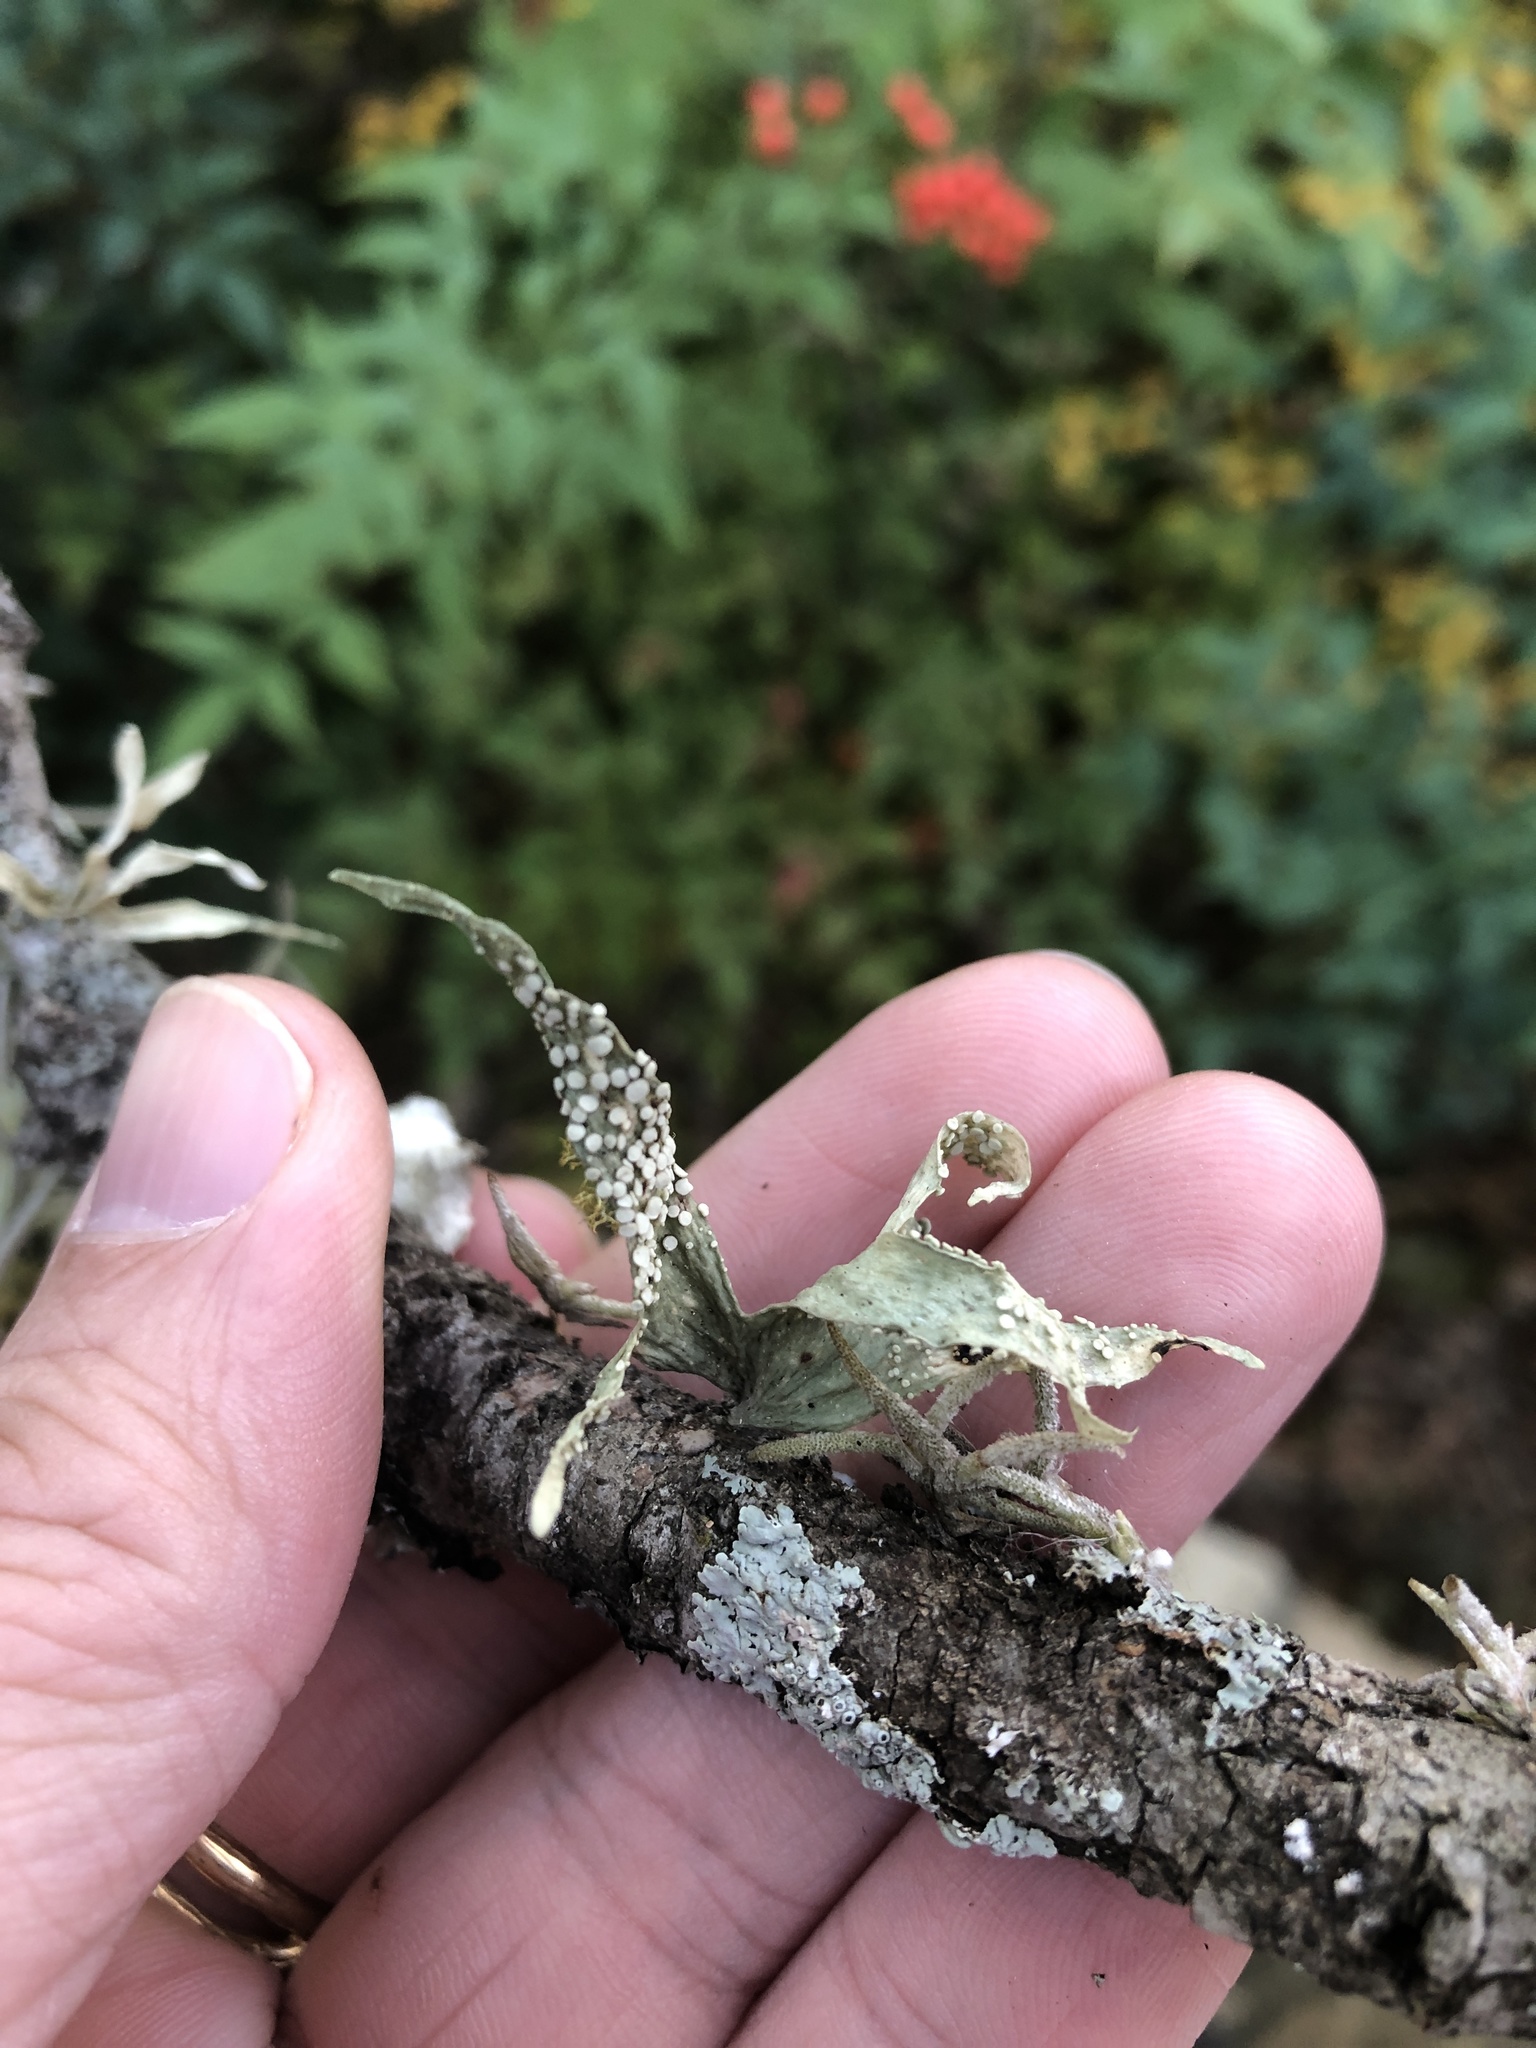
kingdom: Fungi
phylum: Ascomycota
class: Lecanoromycetes
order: Lecanorales
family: Ramalinaceae
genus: Ramalina
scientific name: Ramalina celastri
